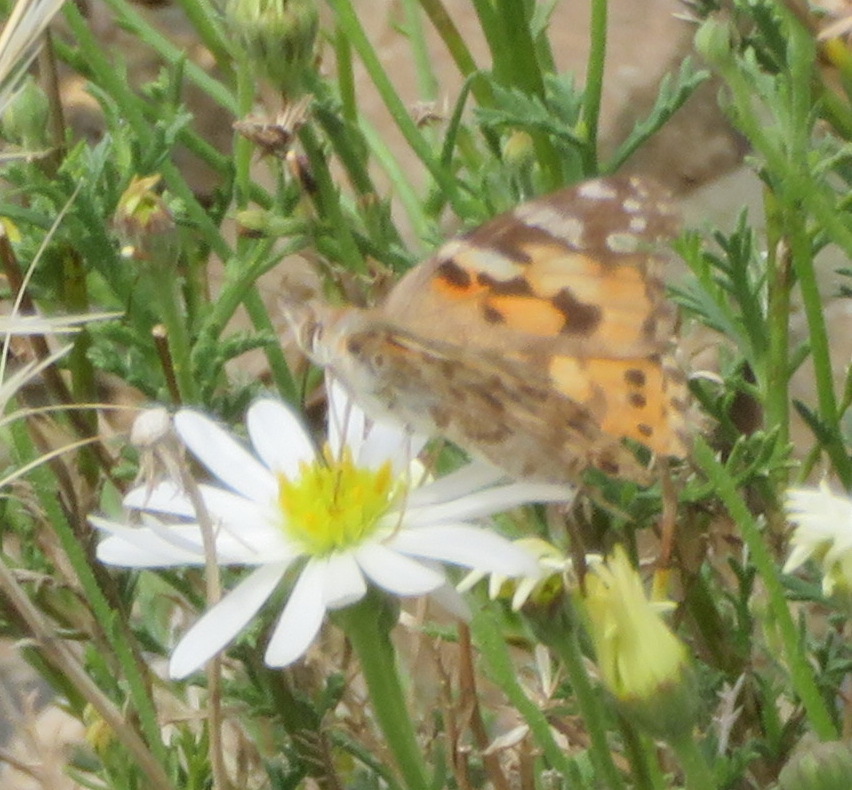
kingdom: Animalia
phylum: Arthropoda
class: Insecta
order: Lepidoptera
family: Nymphalidae
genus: Vanessa
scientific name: Vanessa cardui
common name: Painted lady
